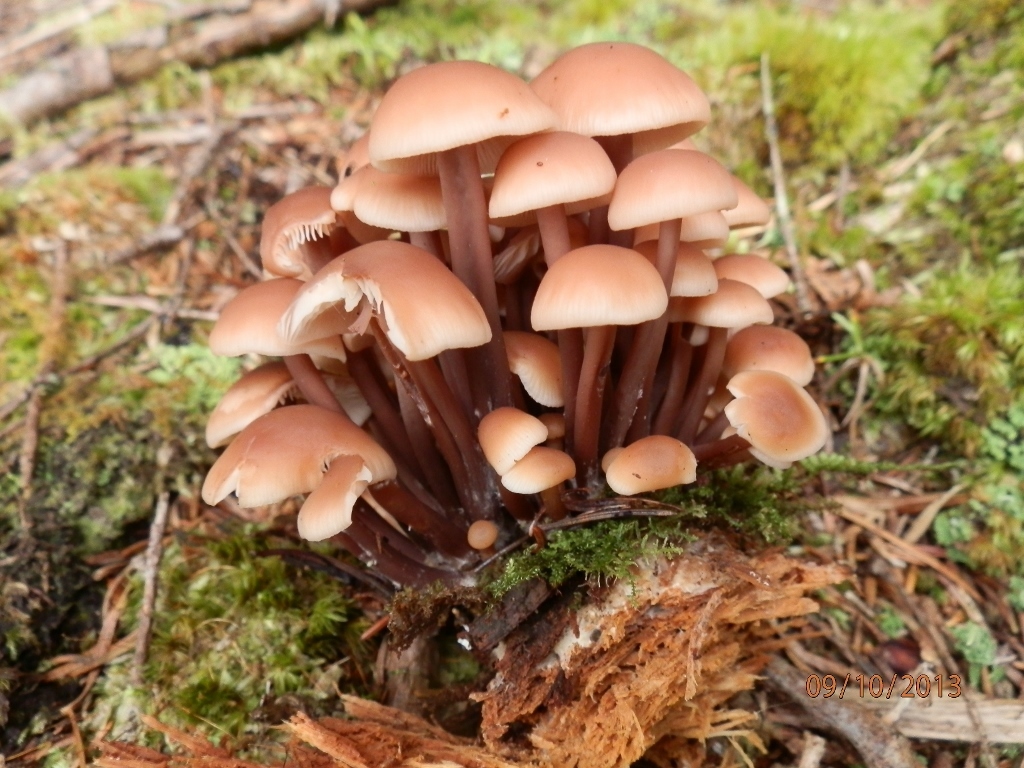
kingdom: Fungi
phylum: Basidiomycota
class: Agaricomycetes
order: Agaricales
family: Omphalotaceae
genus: Connopus
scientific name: Connopus acervatus
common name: Cluster cap
